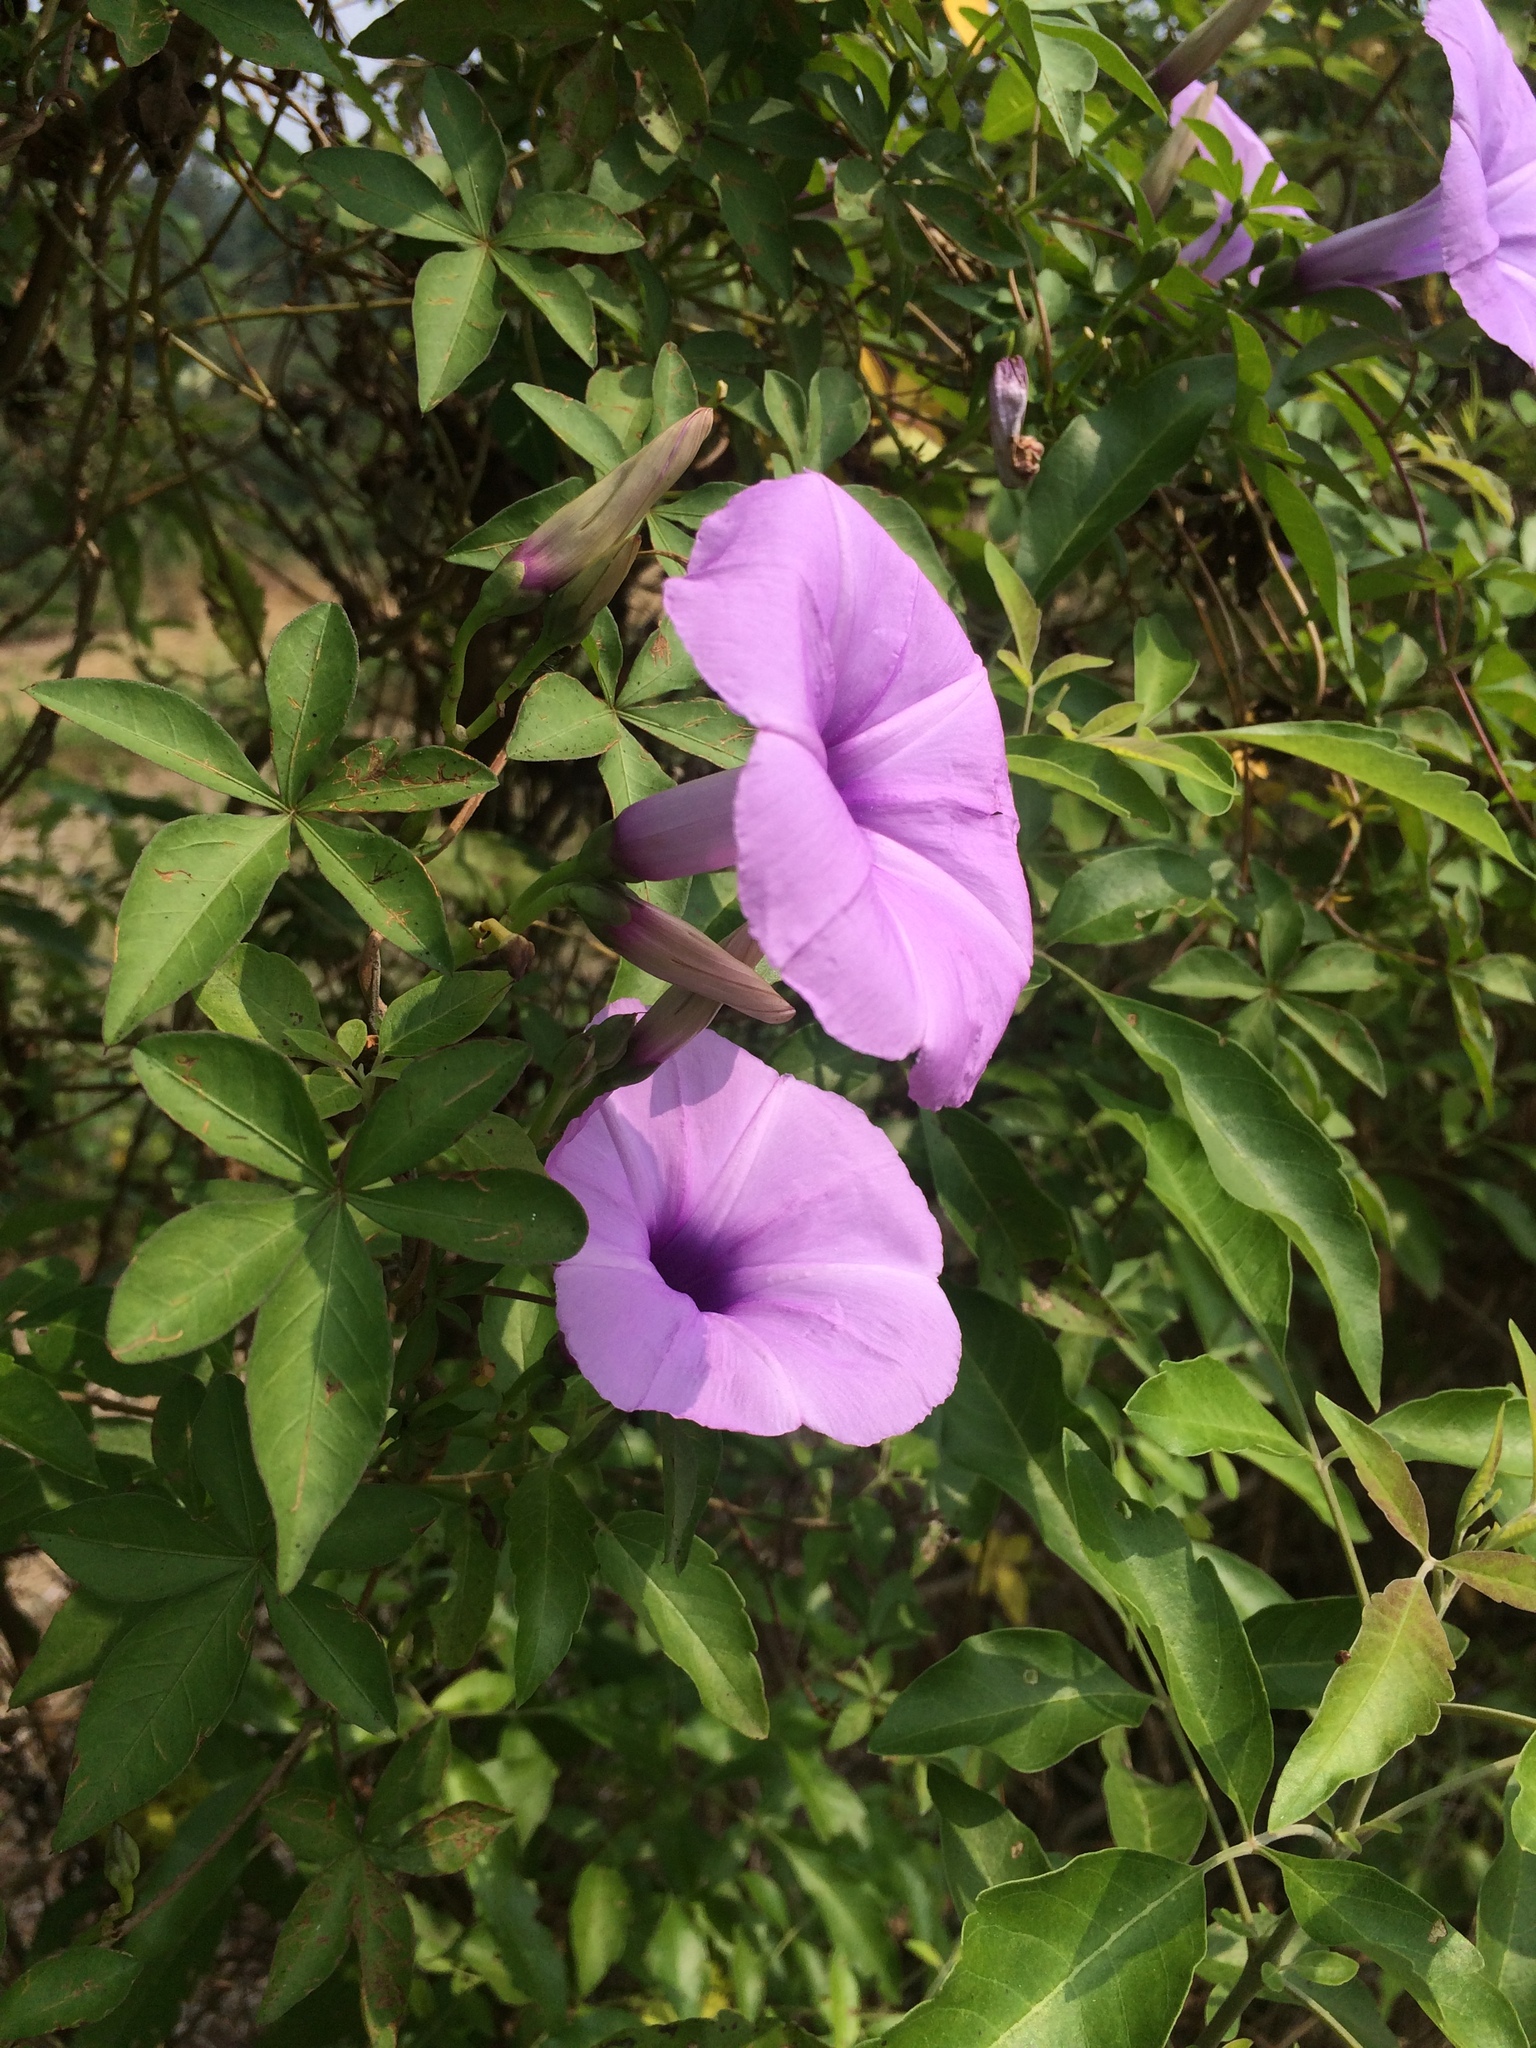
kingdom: Plantae
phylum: Tracheophyta
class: Magnoliopsida
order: Solanales
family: Convolvulaceae
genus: Ipomoea
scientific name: Ipomoea cairica
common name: Mile a minute vine
